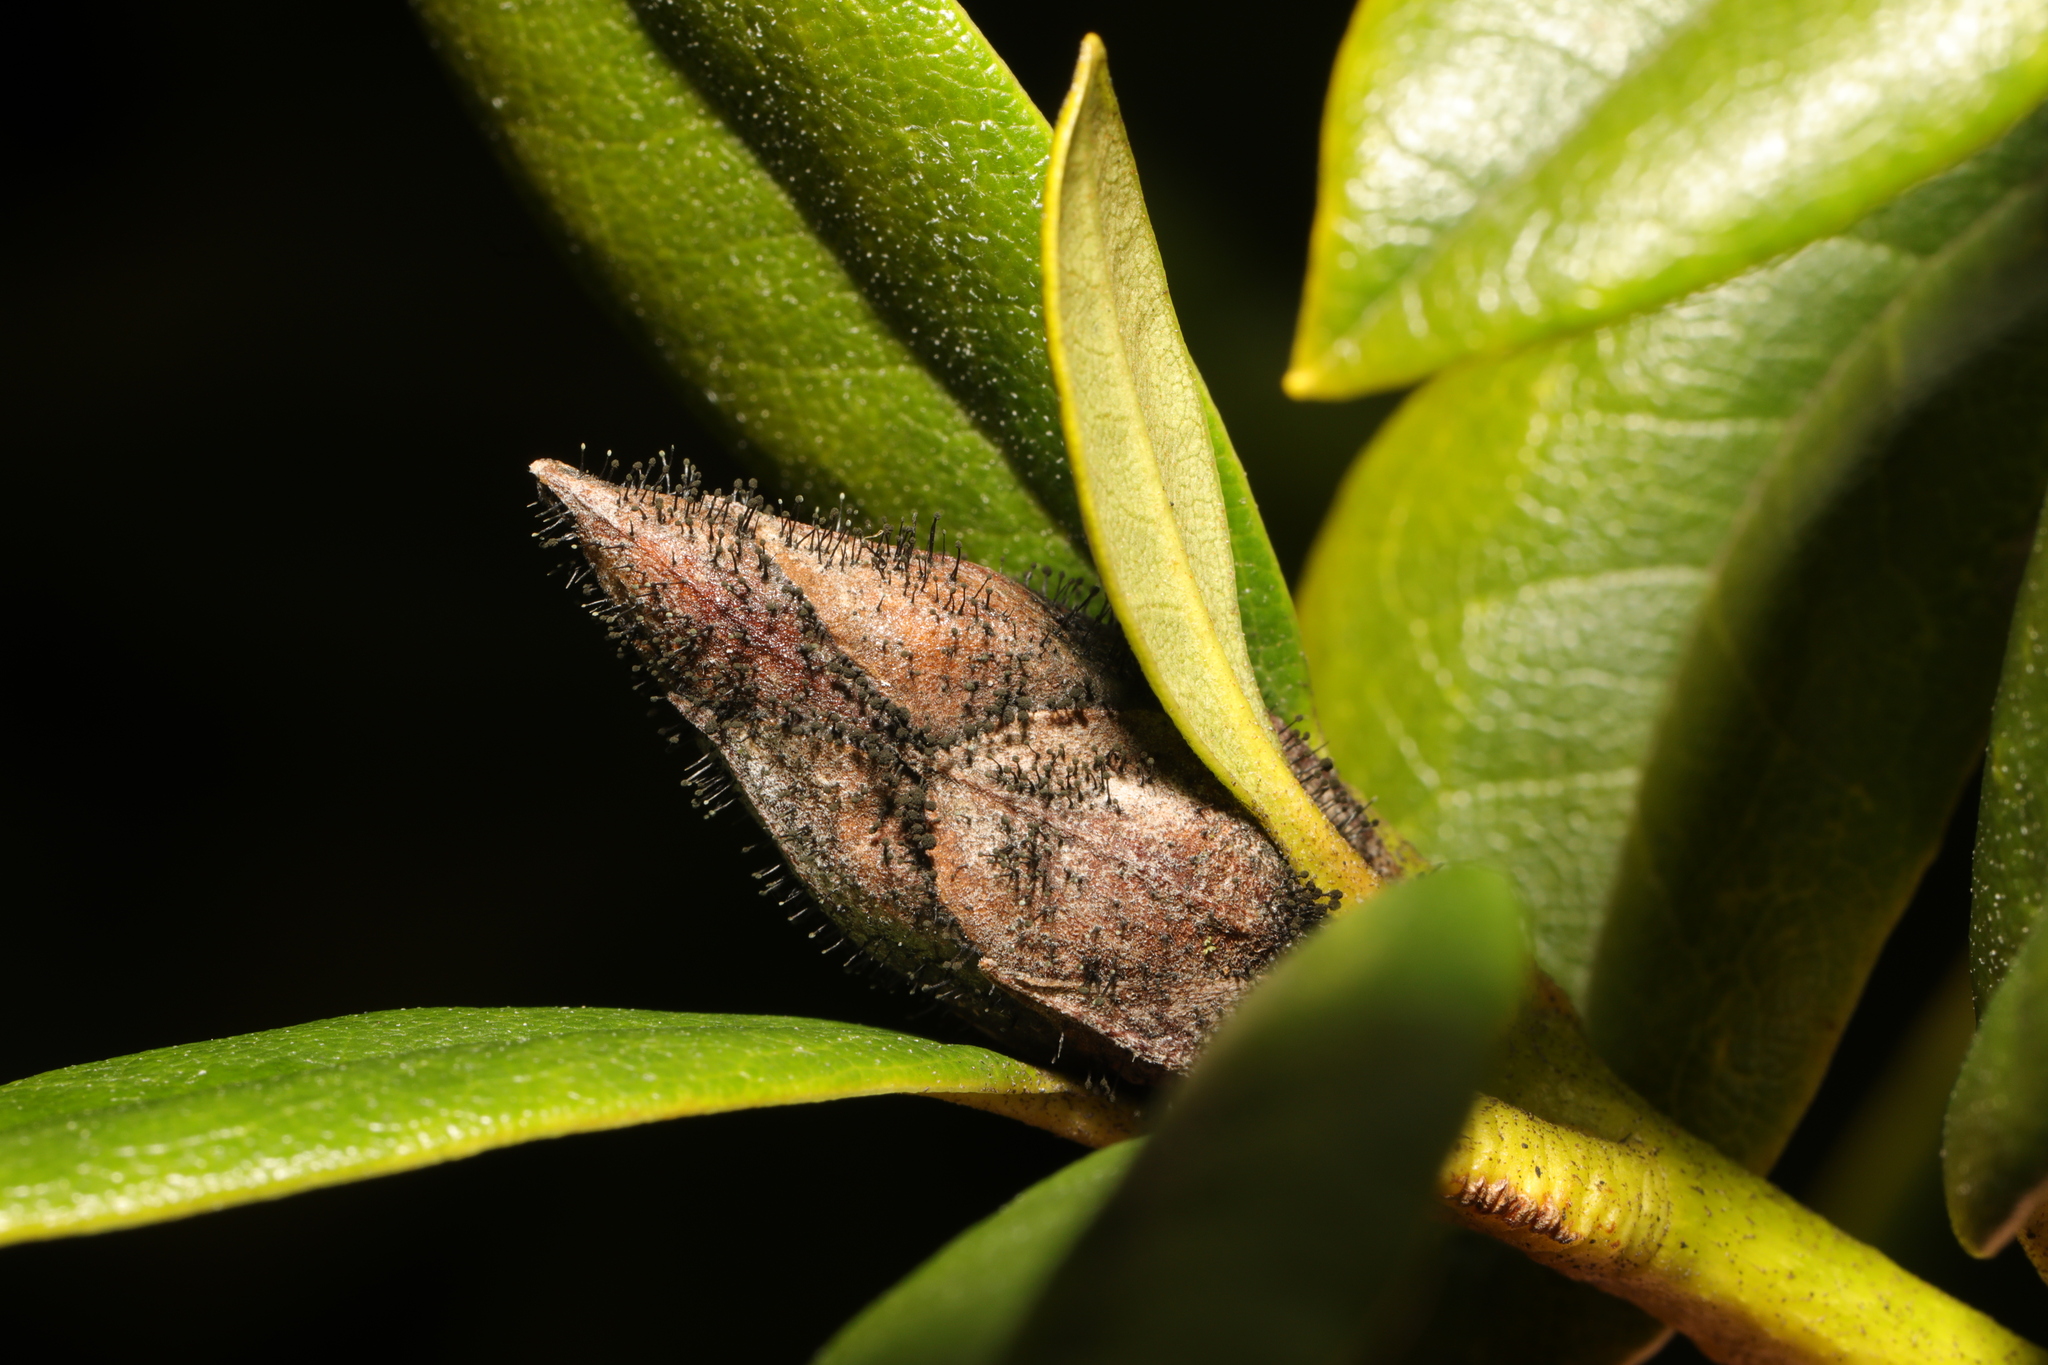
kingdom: Fungi
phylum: Ascomycota
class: Dothideomycetes
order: Pleosporales
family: Melanommataceae
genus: Seifertia
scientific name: Seifertia azaleae
